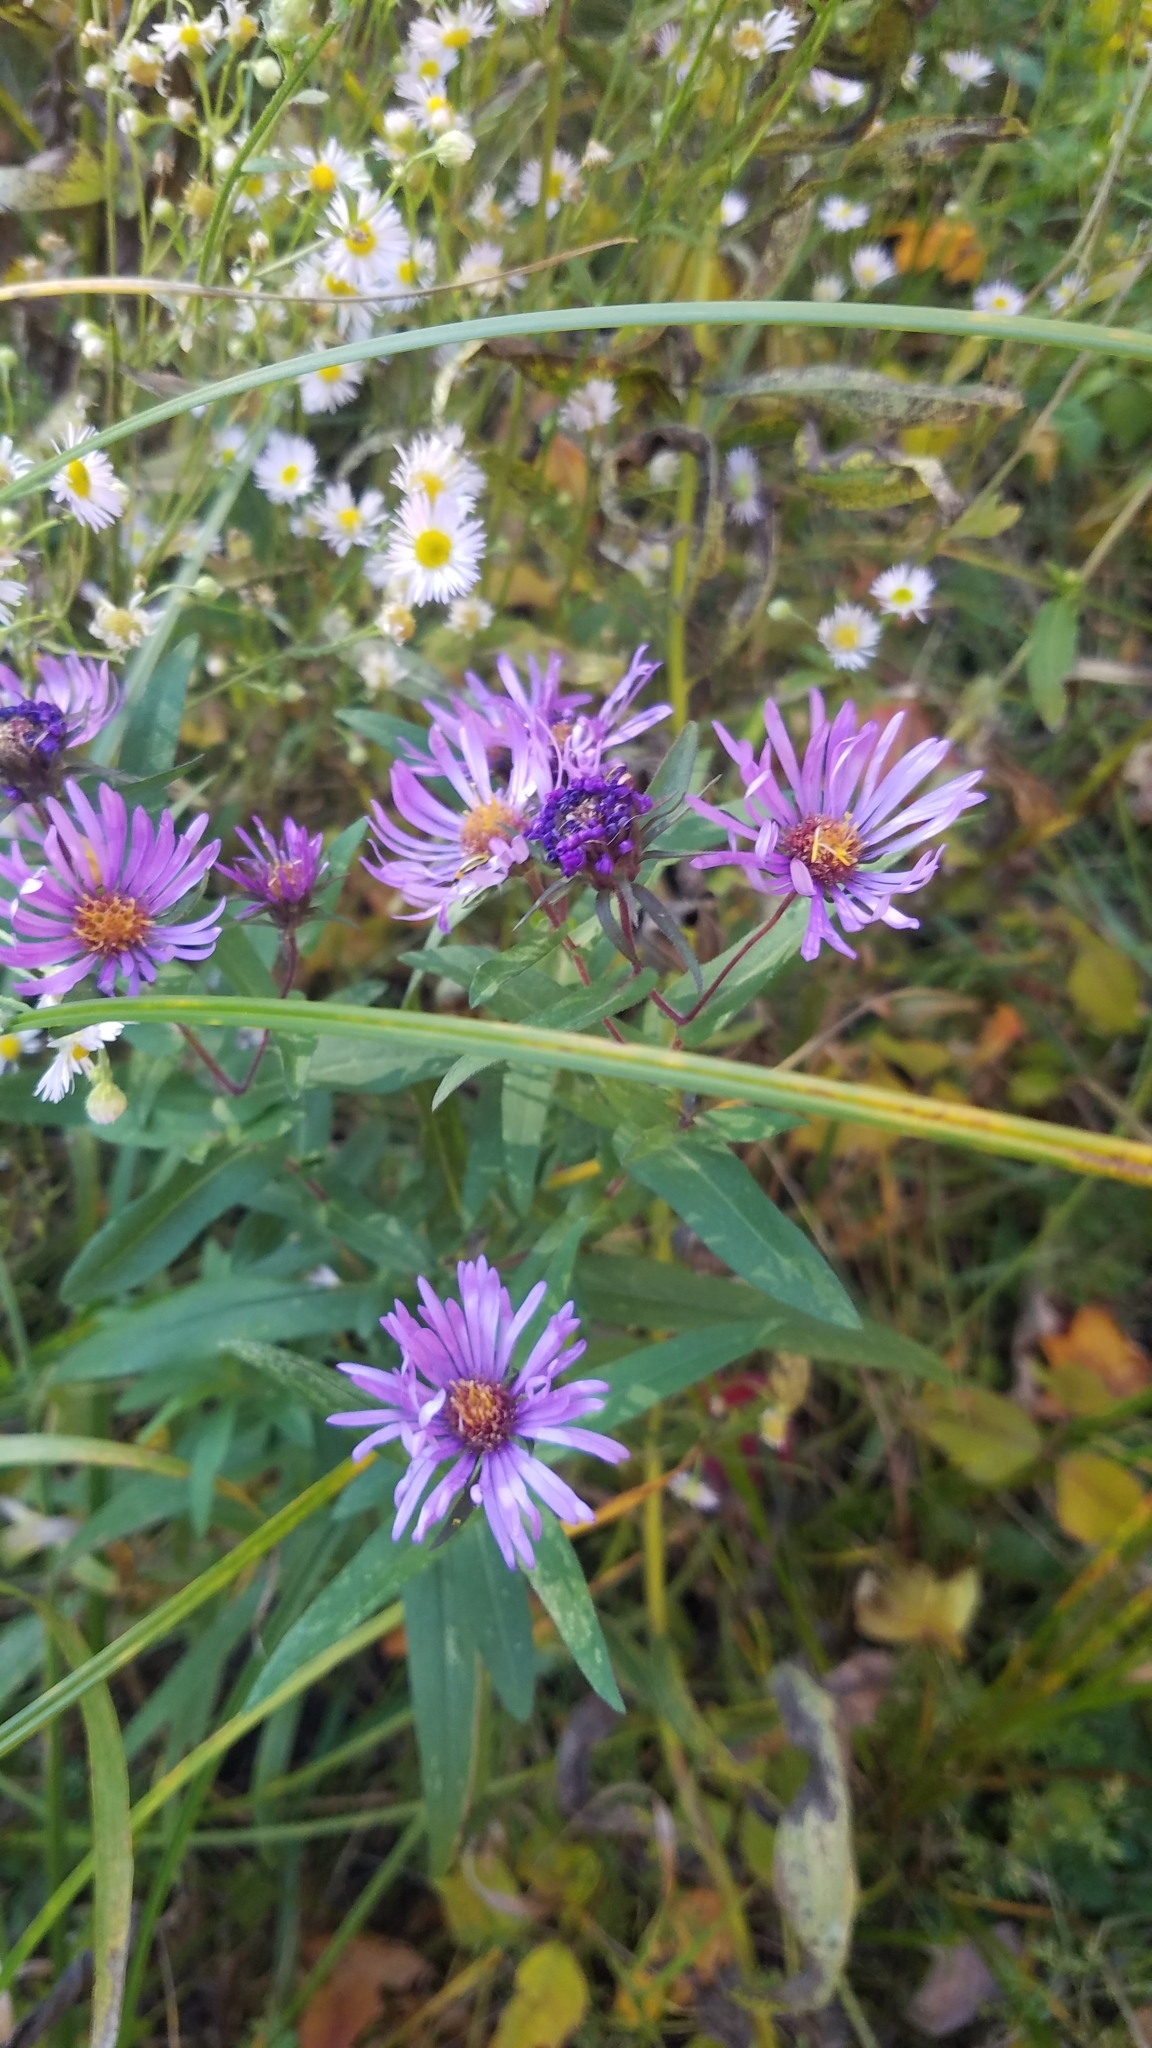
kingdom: Plantae
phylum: Tracheophyta
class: Magnoliopsida
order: Asterales
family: Asteraceae
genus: Symphyotrichum
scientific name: Symphyotrichum novae-angliae
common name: Michaelmas daisy
